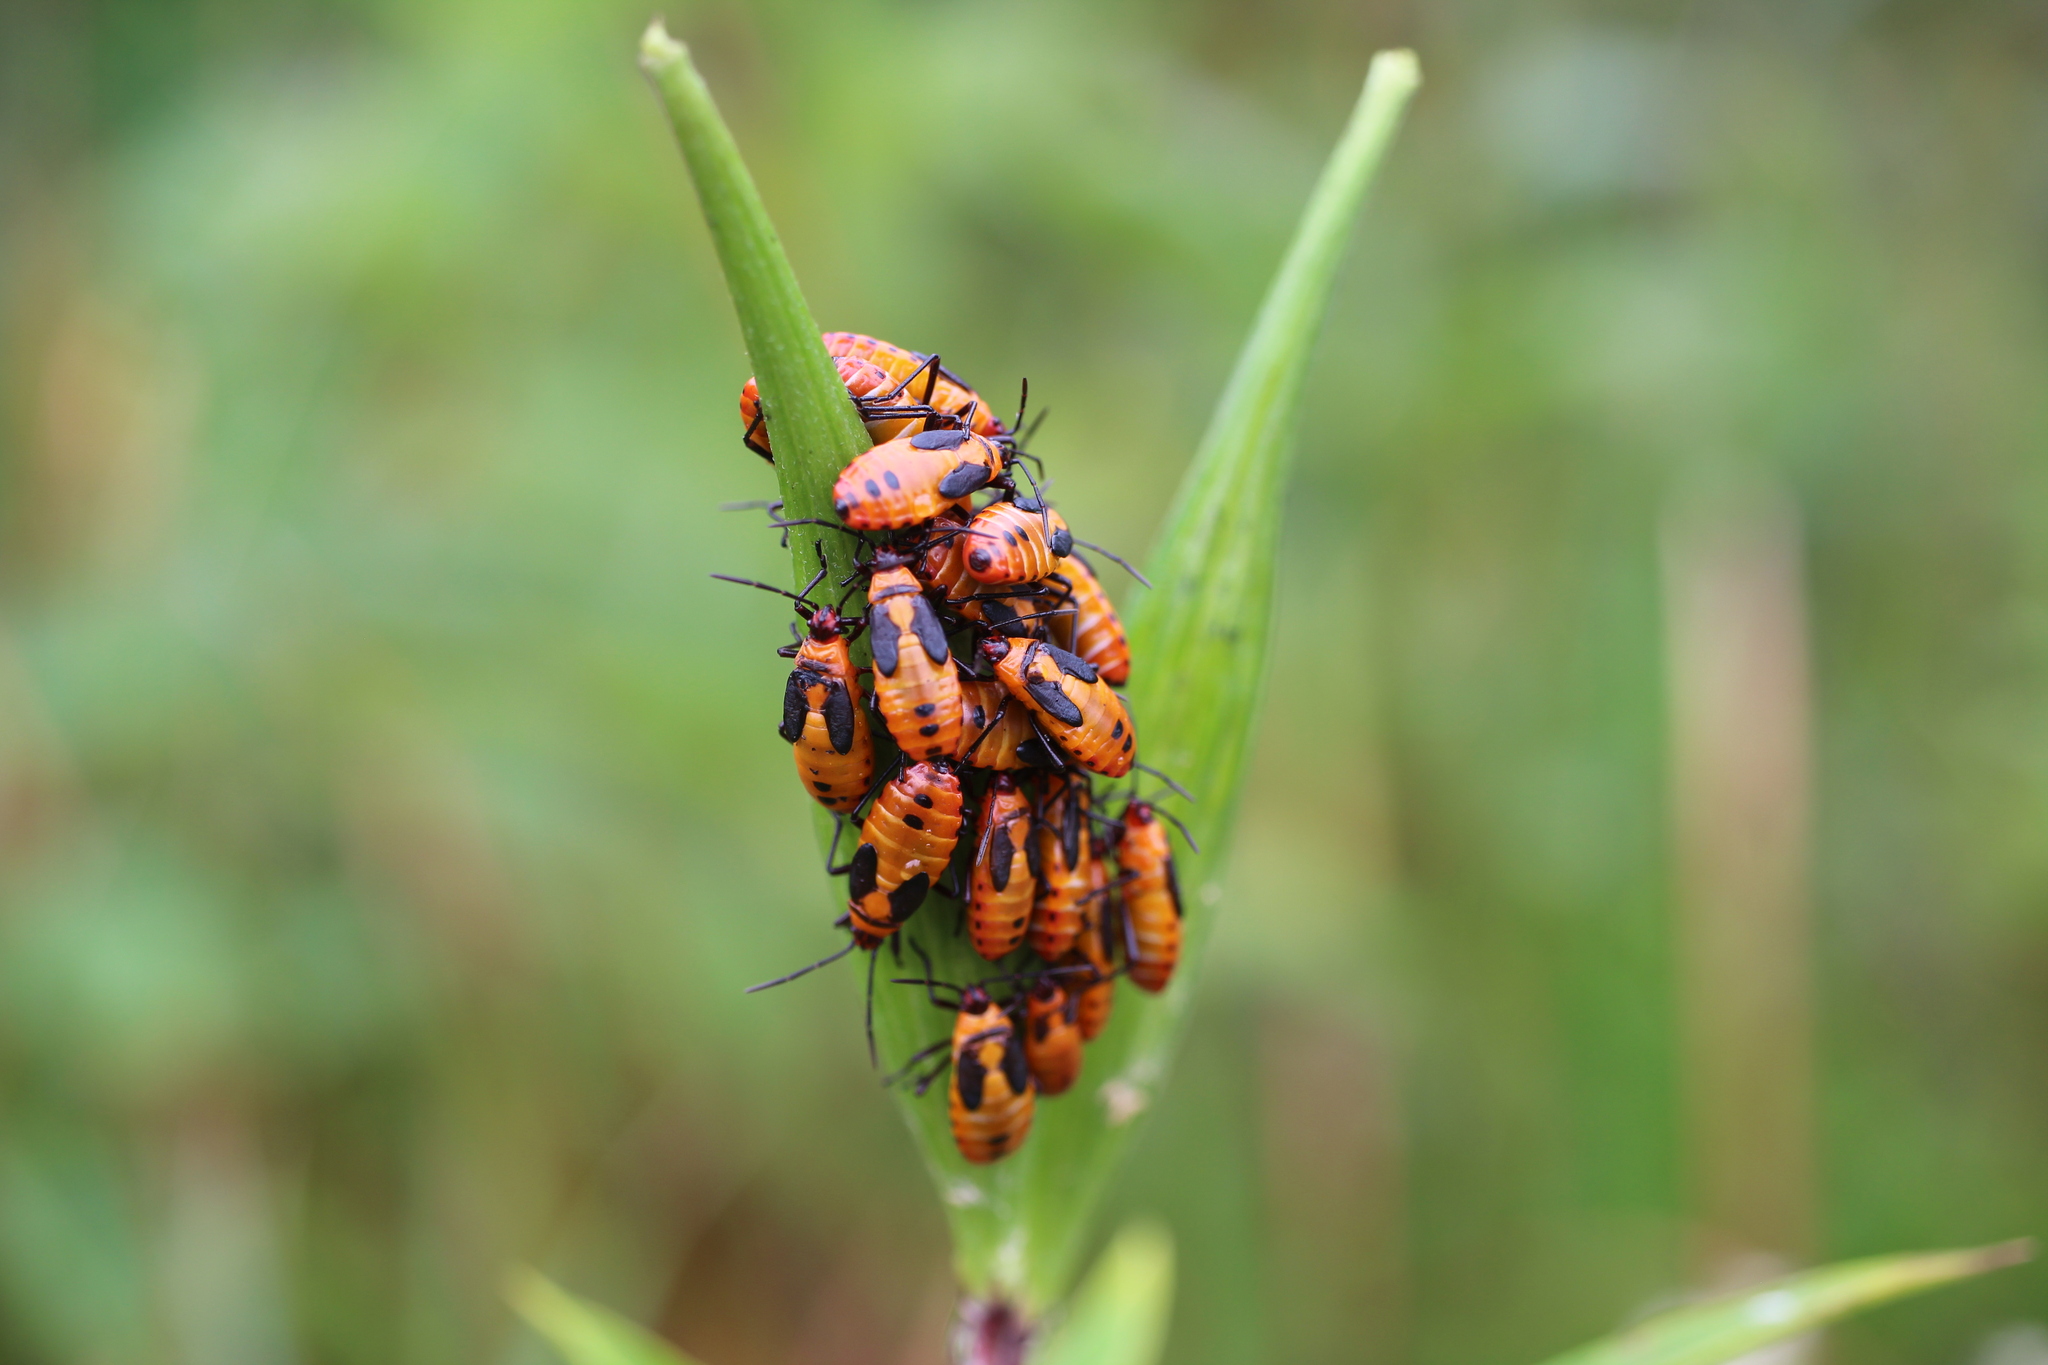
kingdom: Animalia
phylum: Arthropoda
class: Insecta
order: Hemiptera
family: Lygaeidae
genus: Oncopeltus
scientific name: Oncopeltus fasciatus
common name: Large milkweed bug
